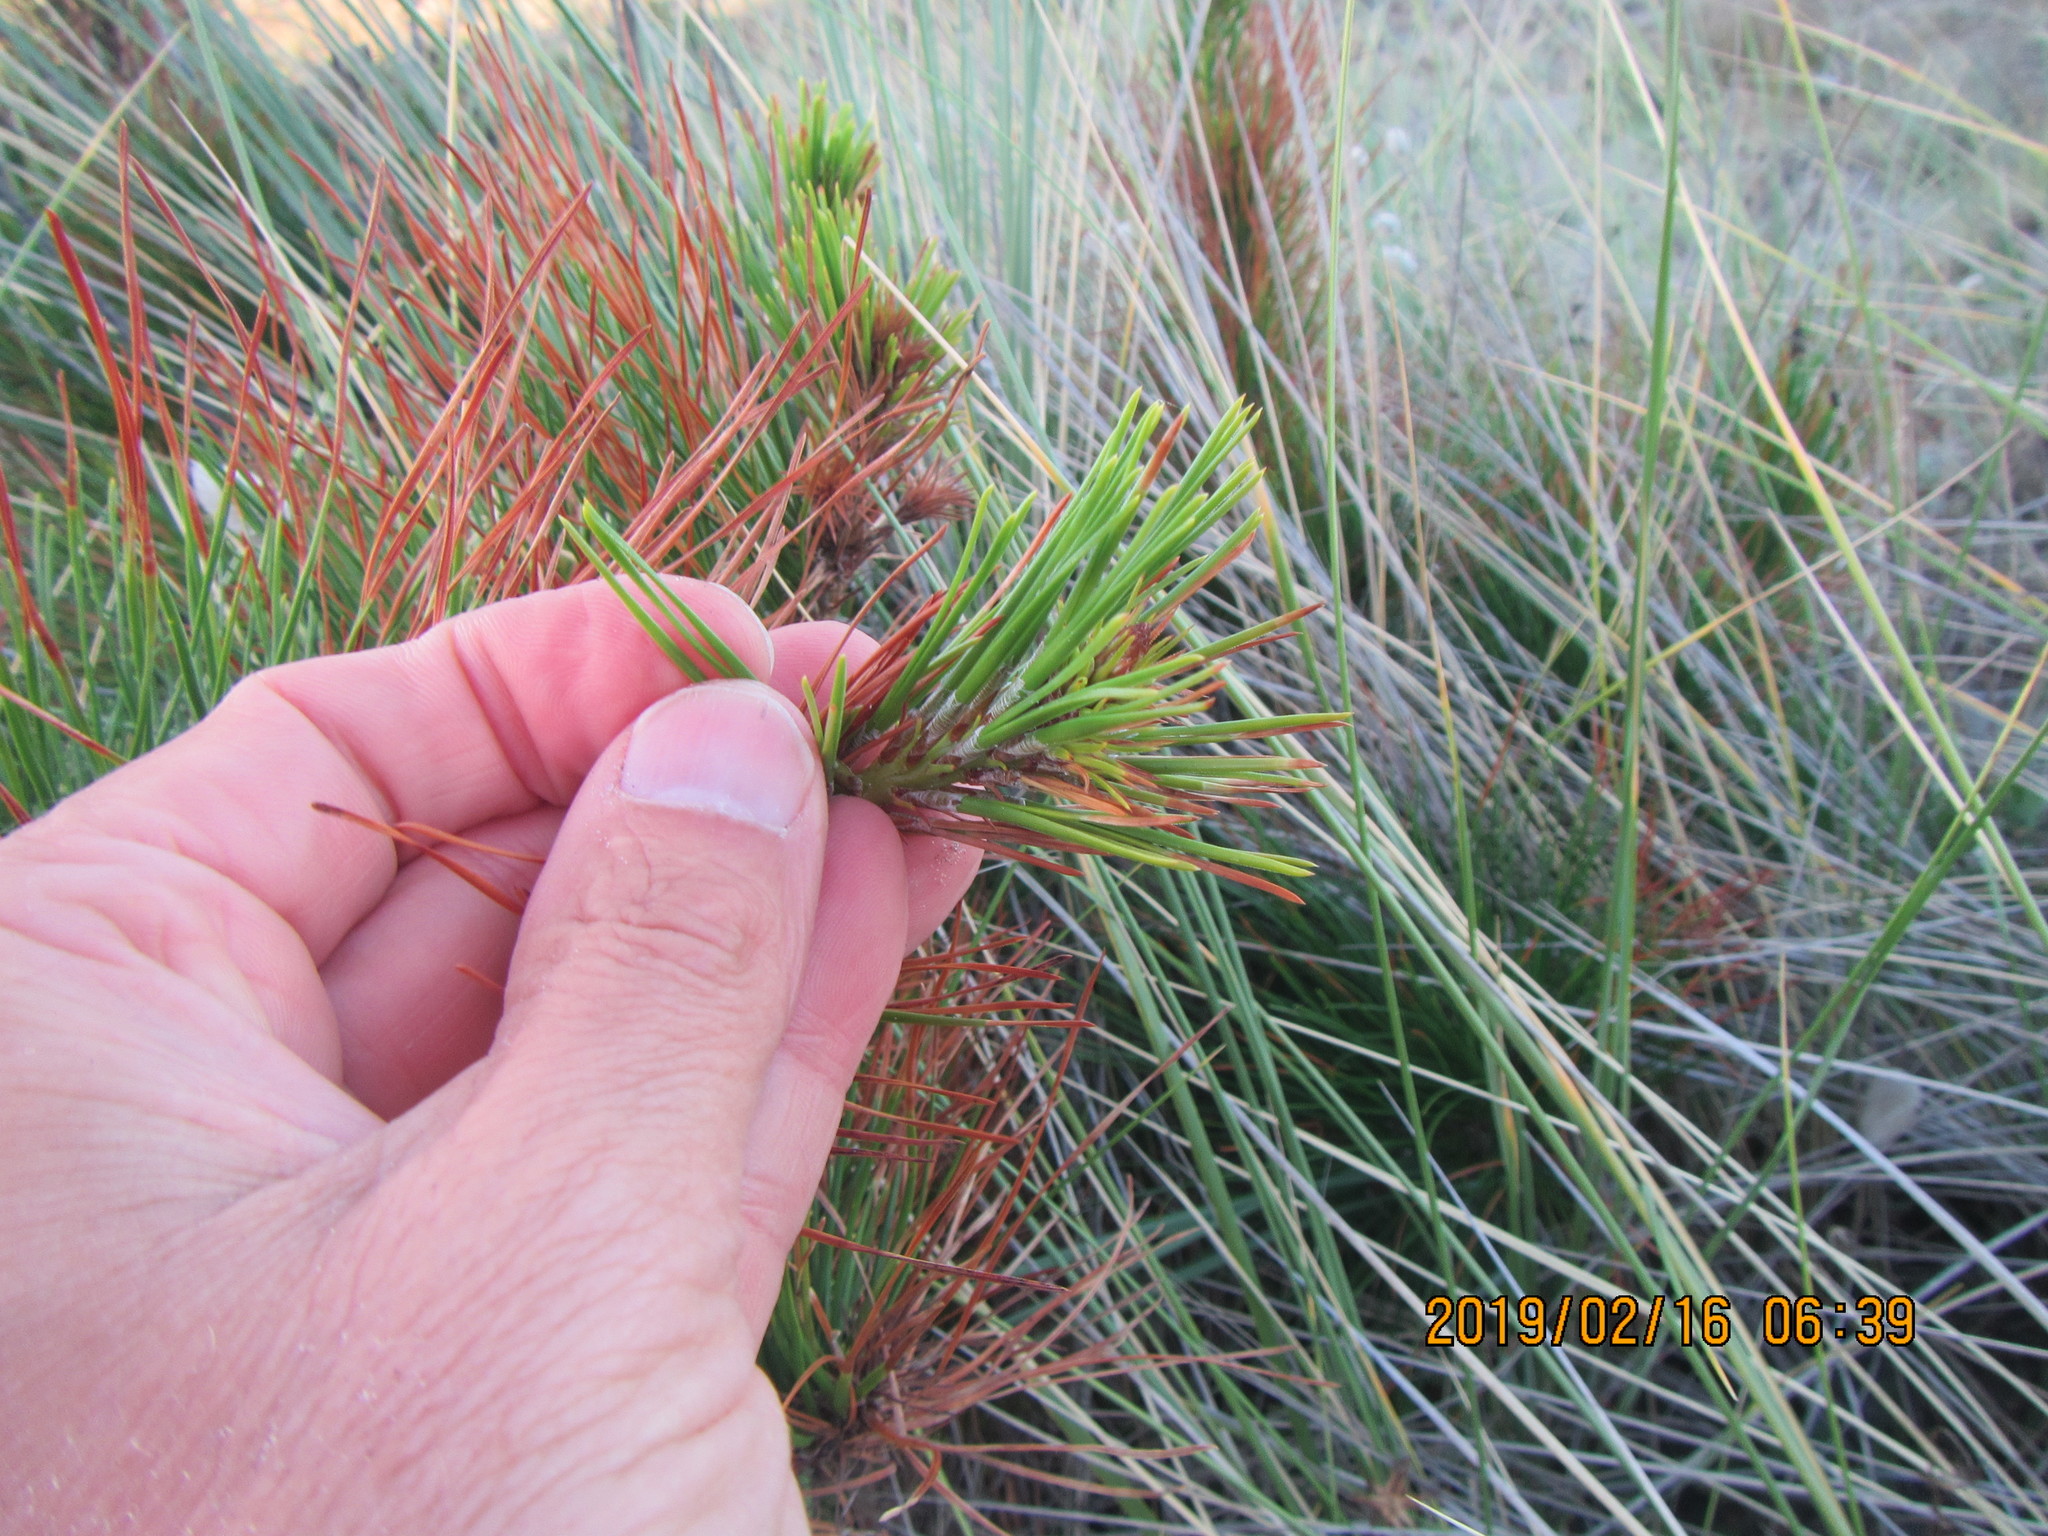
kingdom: Plantae
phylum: Tracheophyta
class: Pinopsida
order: Pinales
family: Pinaceae
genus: Pinus
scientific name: Pinus radiata
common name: Monterey pine
